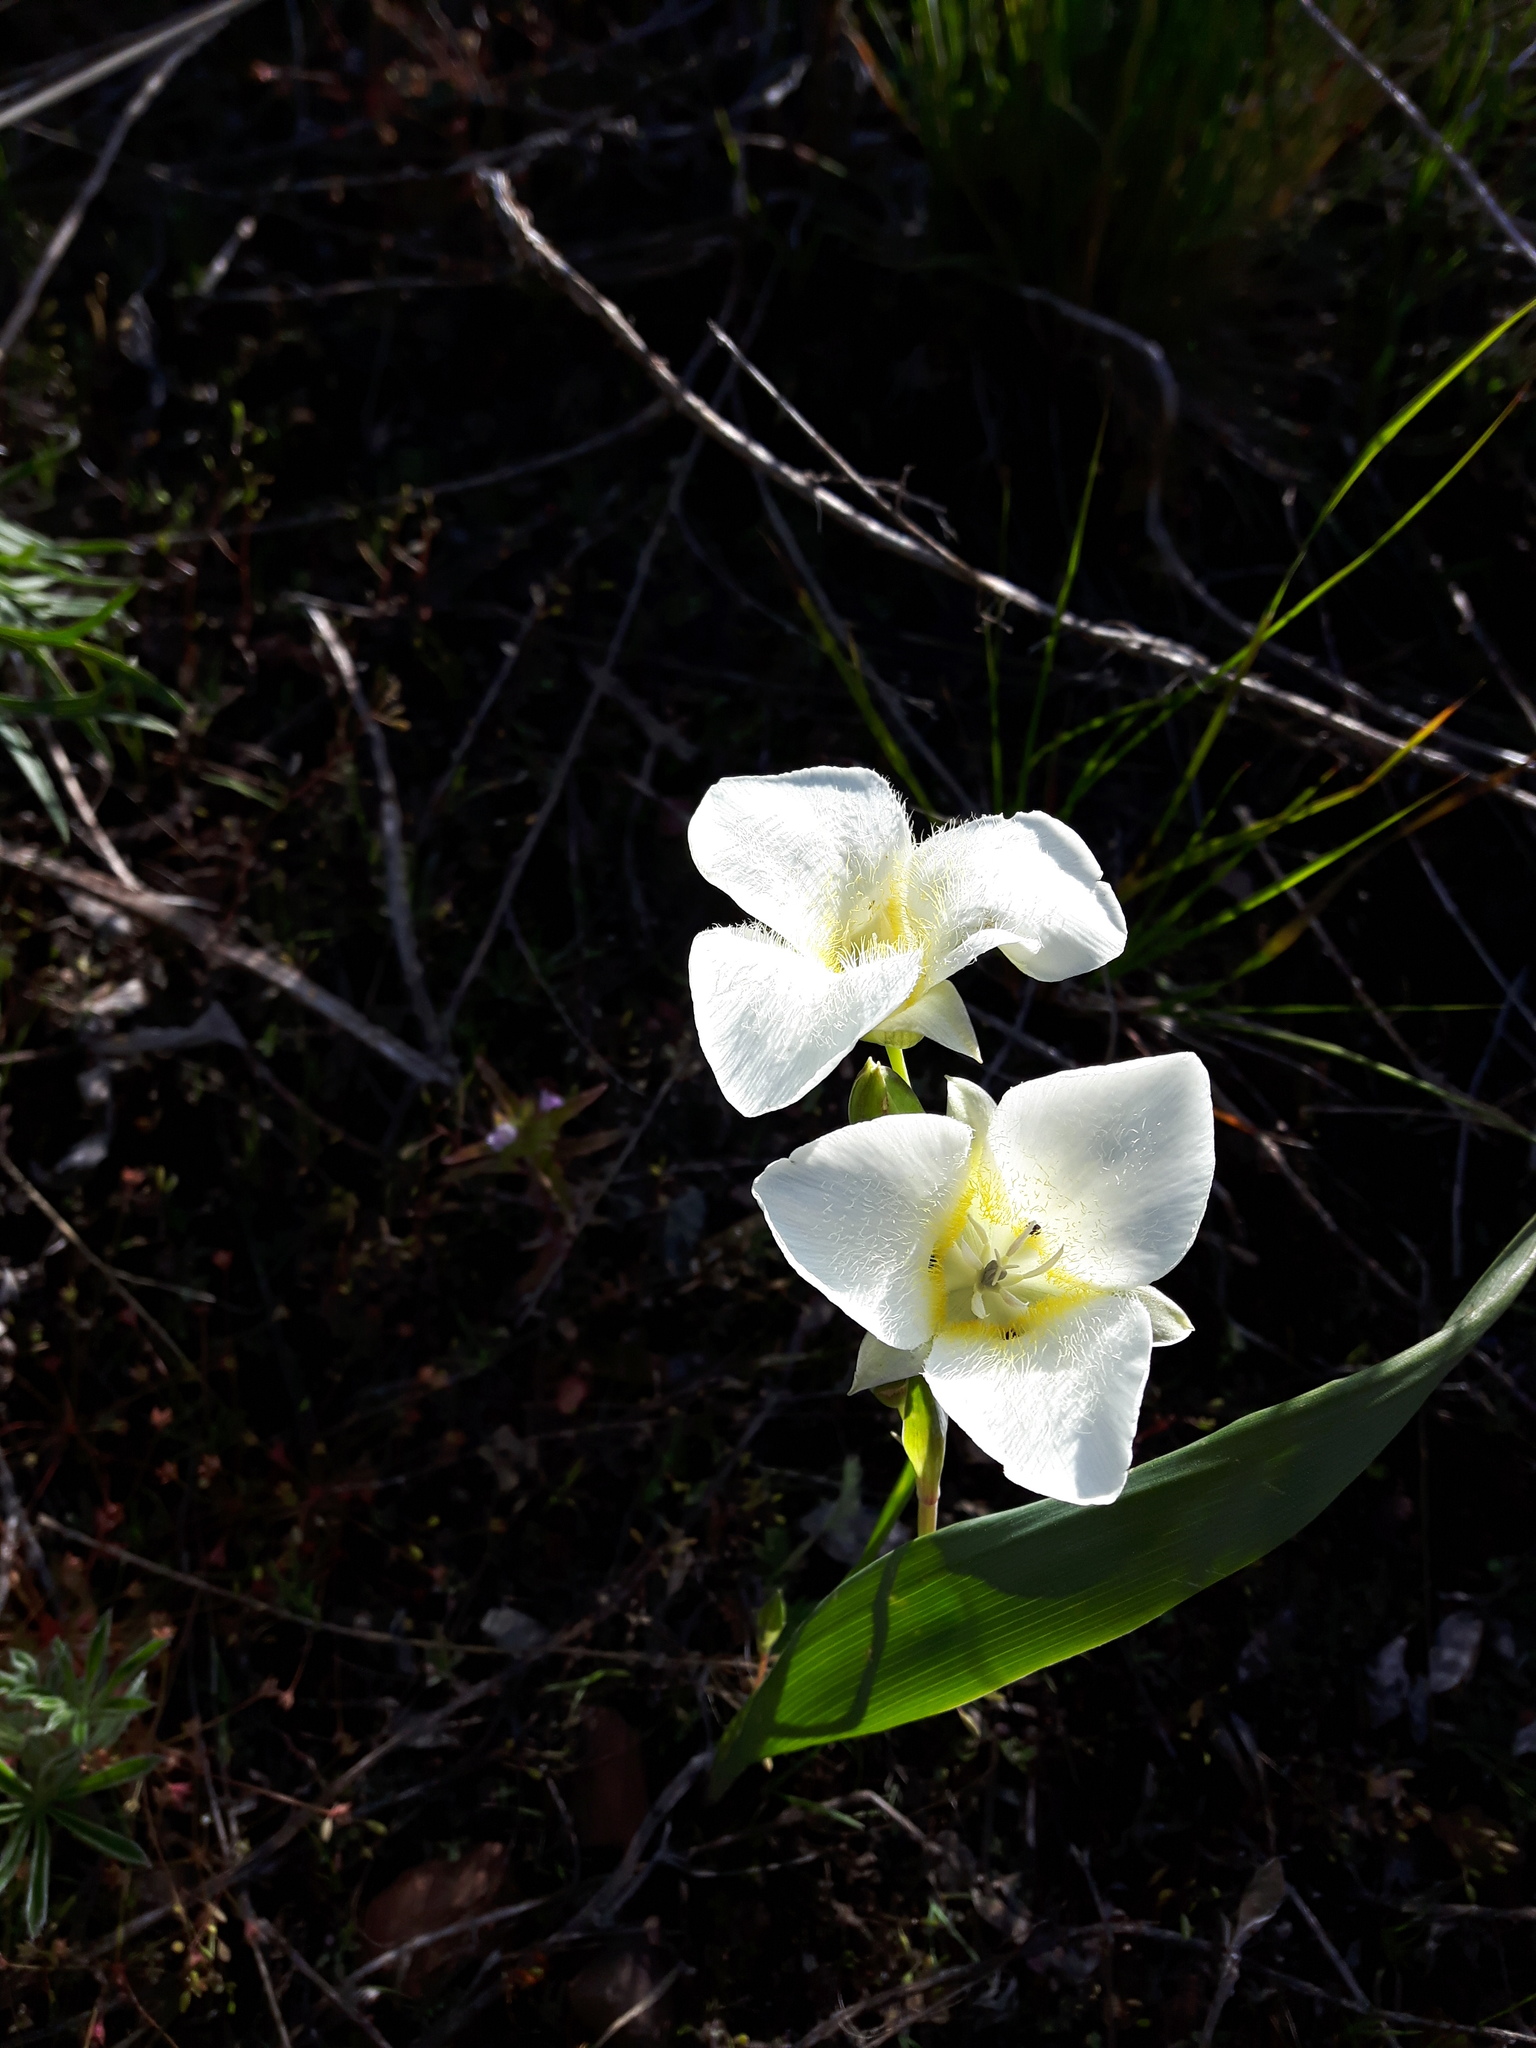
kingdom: Plantae
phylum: Tracheophyta
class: Liliopsida
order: Liliales
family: Liliaceae
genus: Calochortus
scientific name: Calochortus apiculatus
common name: Baker's mariposa lily
